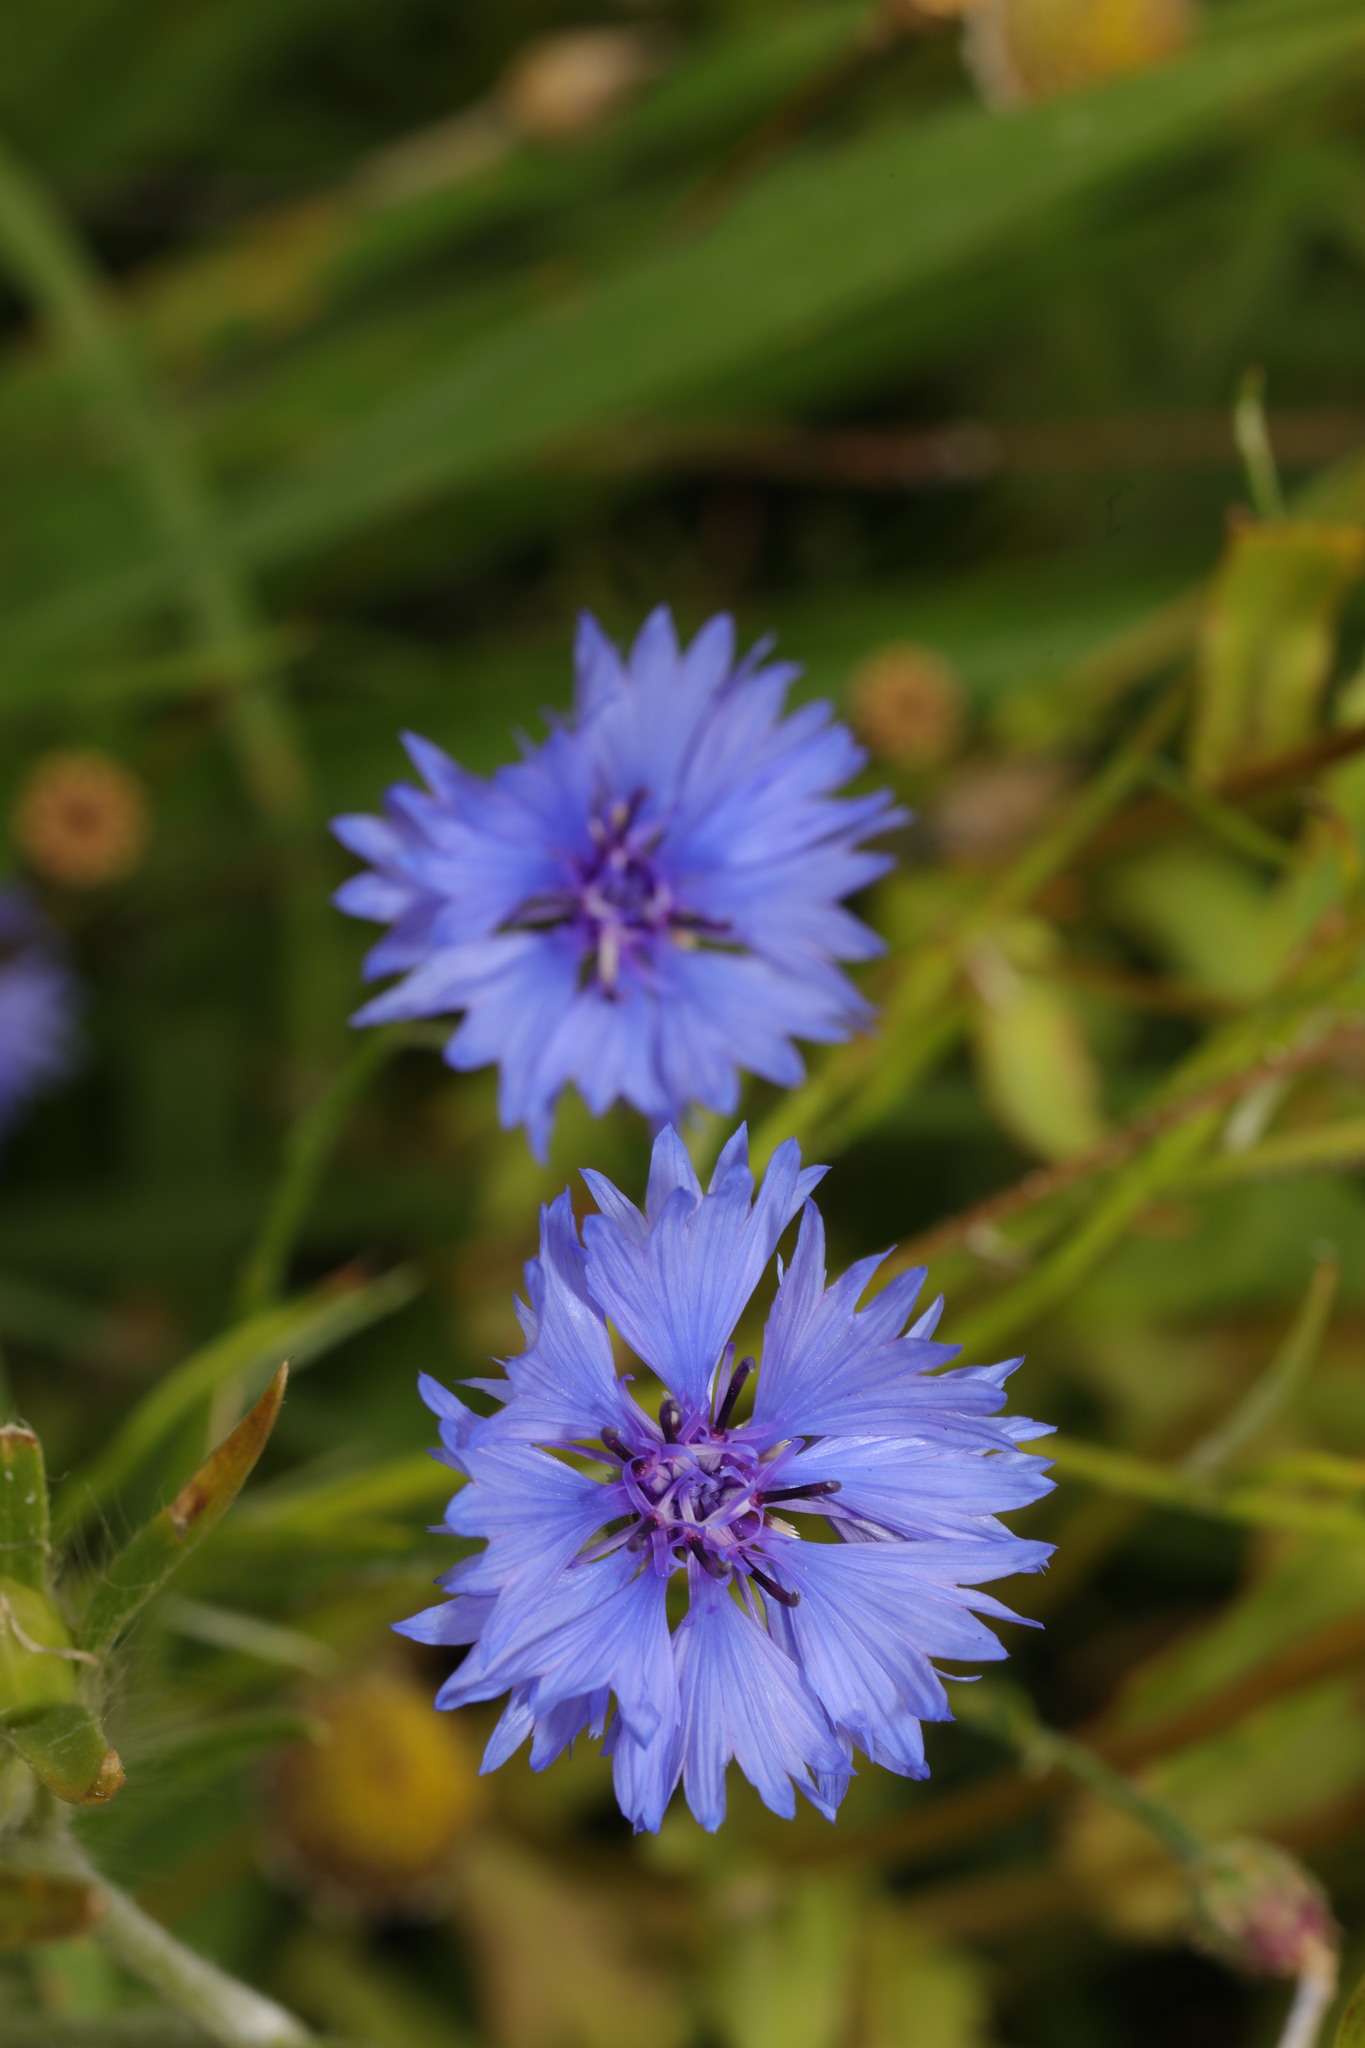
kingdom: Plantae
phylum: Tracheophyta
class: Magnoliopsida
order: Asterales
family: Asteraceae
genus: Centaurea
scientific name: Centaurea cyanus
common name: Cornflower
